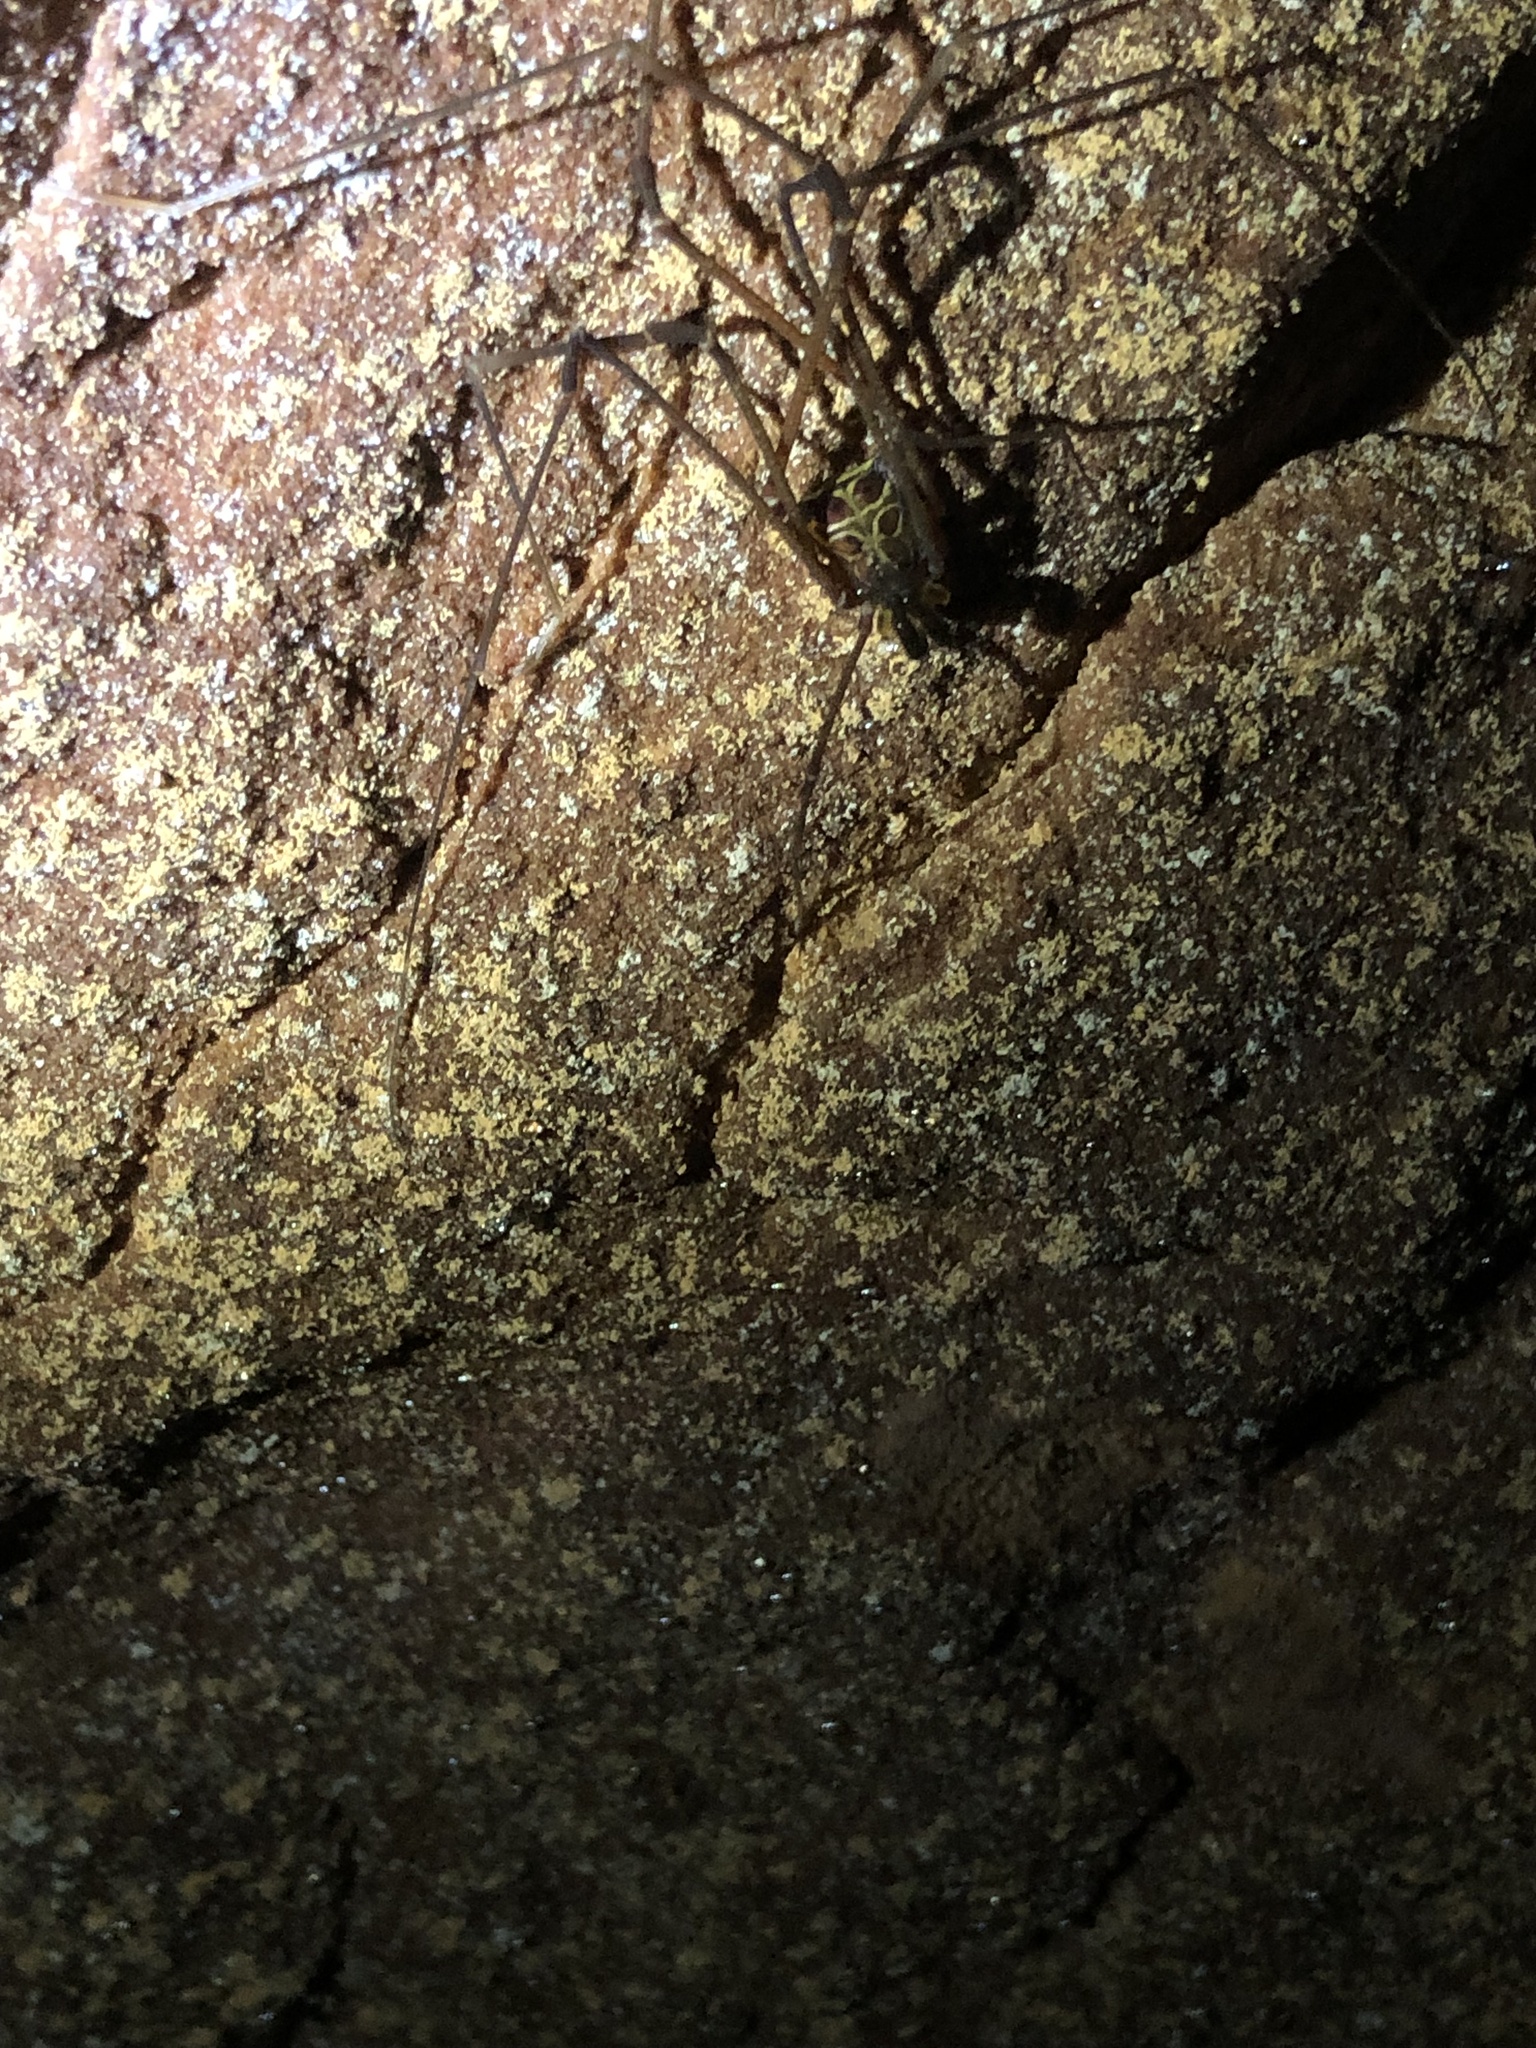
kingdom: Animalia
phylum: Arthropoda
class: Arachnida
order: Opiliones
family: Gonyleptidae
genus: Serracutisoma
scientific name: Serracutisoma catarina
